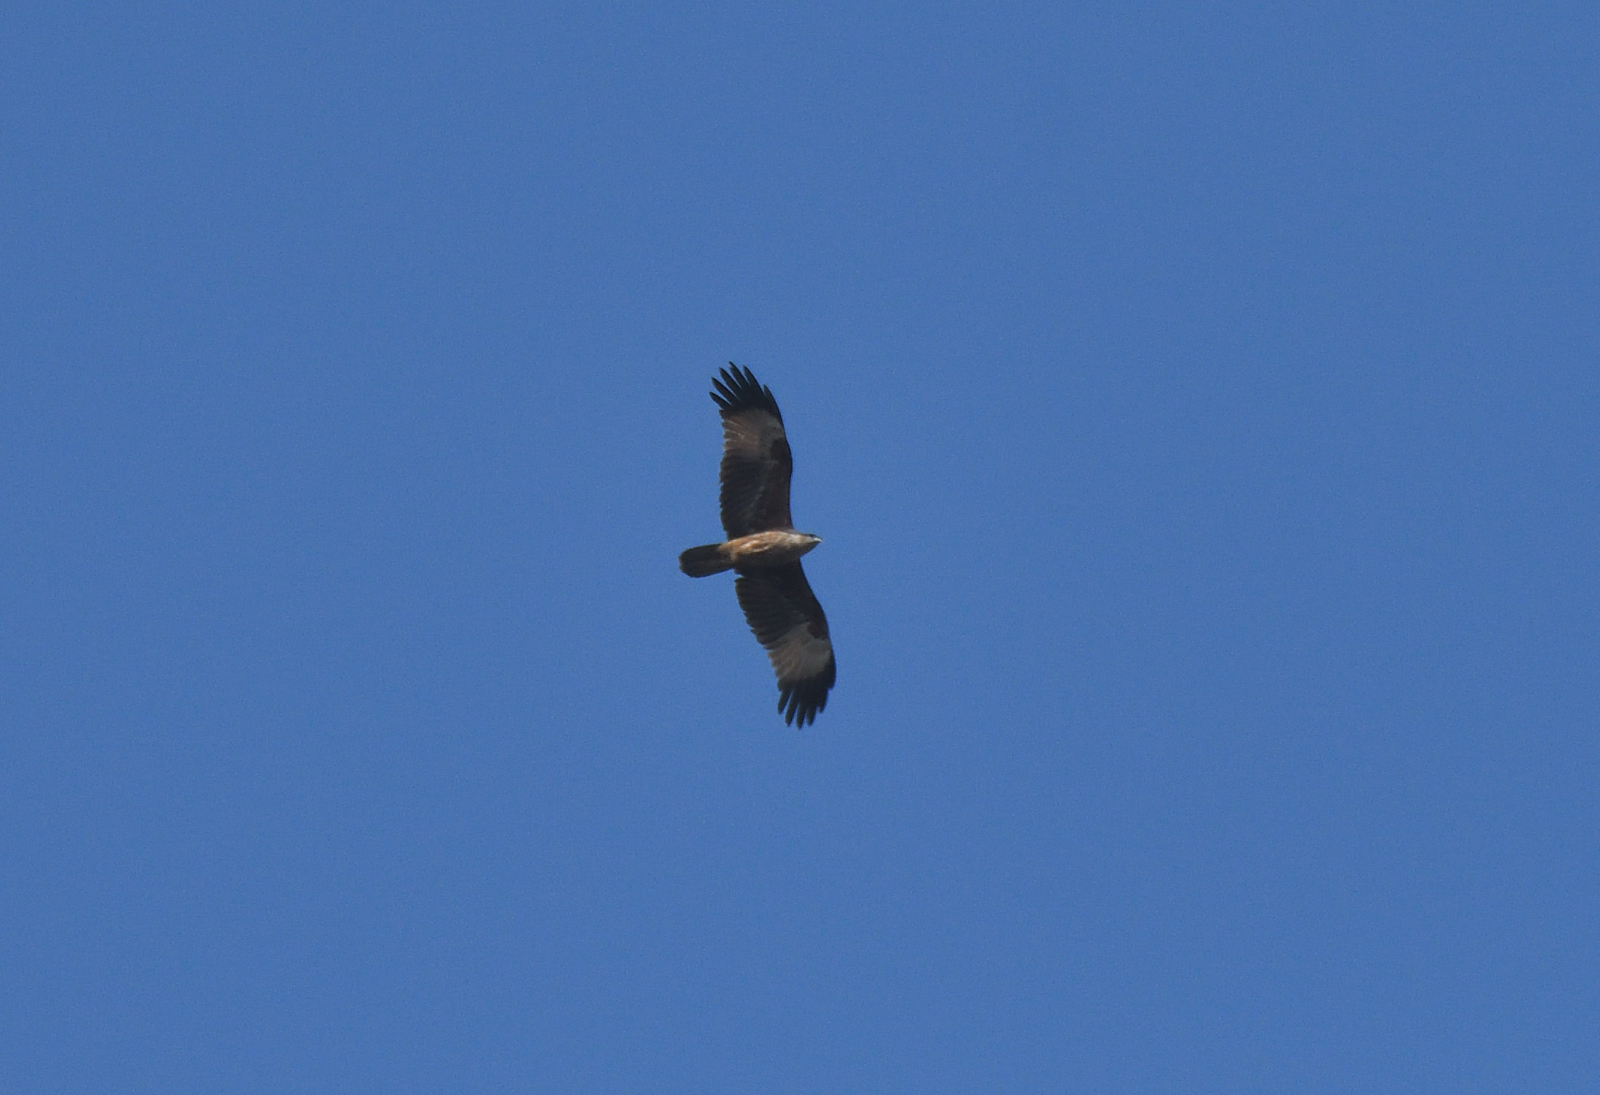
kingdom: Animalia
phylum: Chordata
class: Aves
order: Accipitriformes
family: Accipitridae
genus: Haliastur
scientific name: Haliastur indus
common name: Brahminy kite
